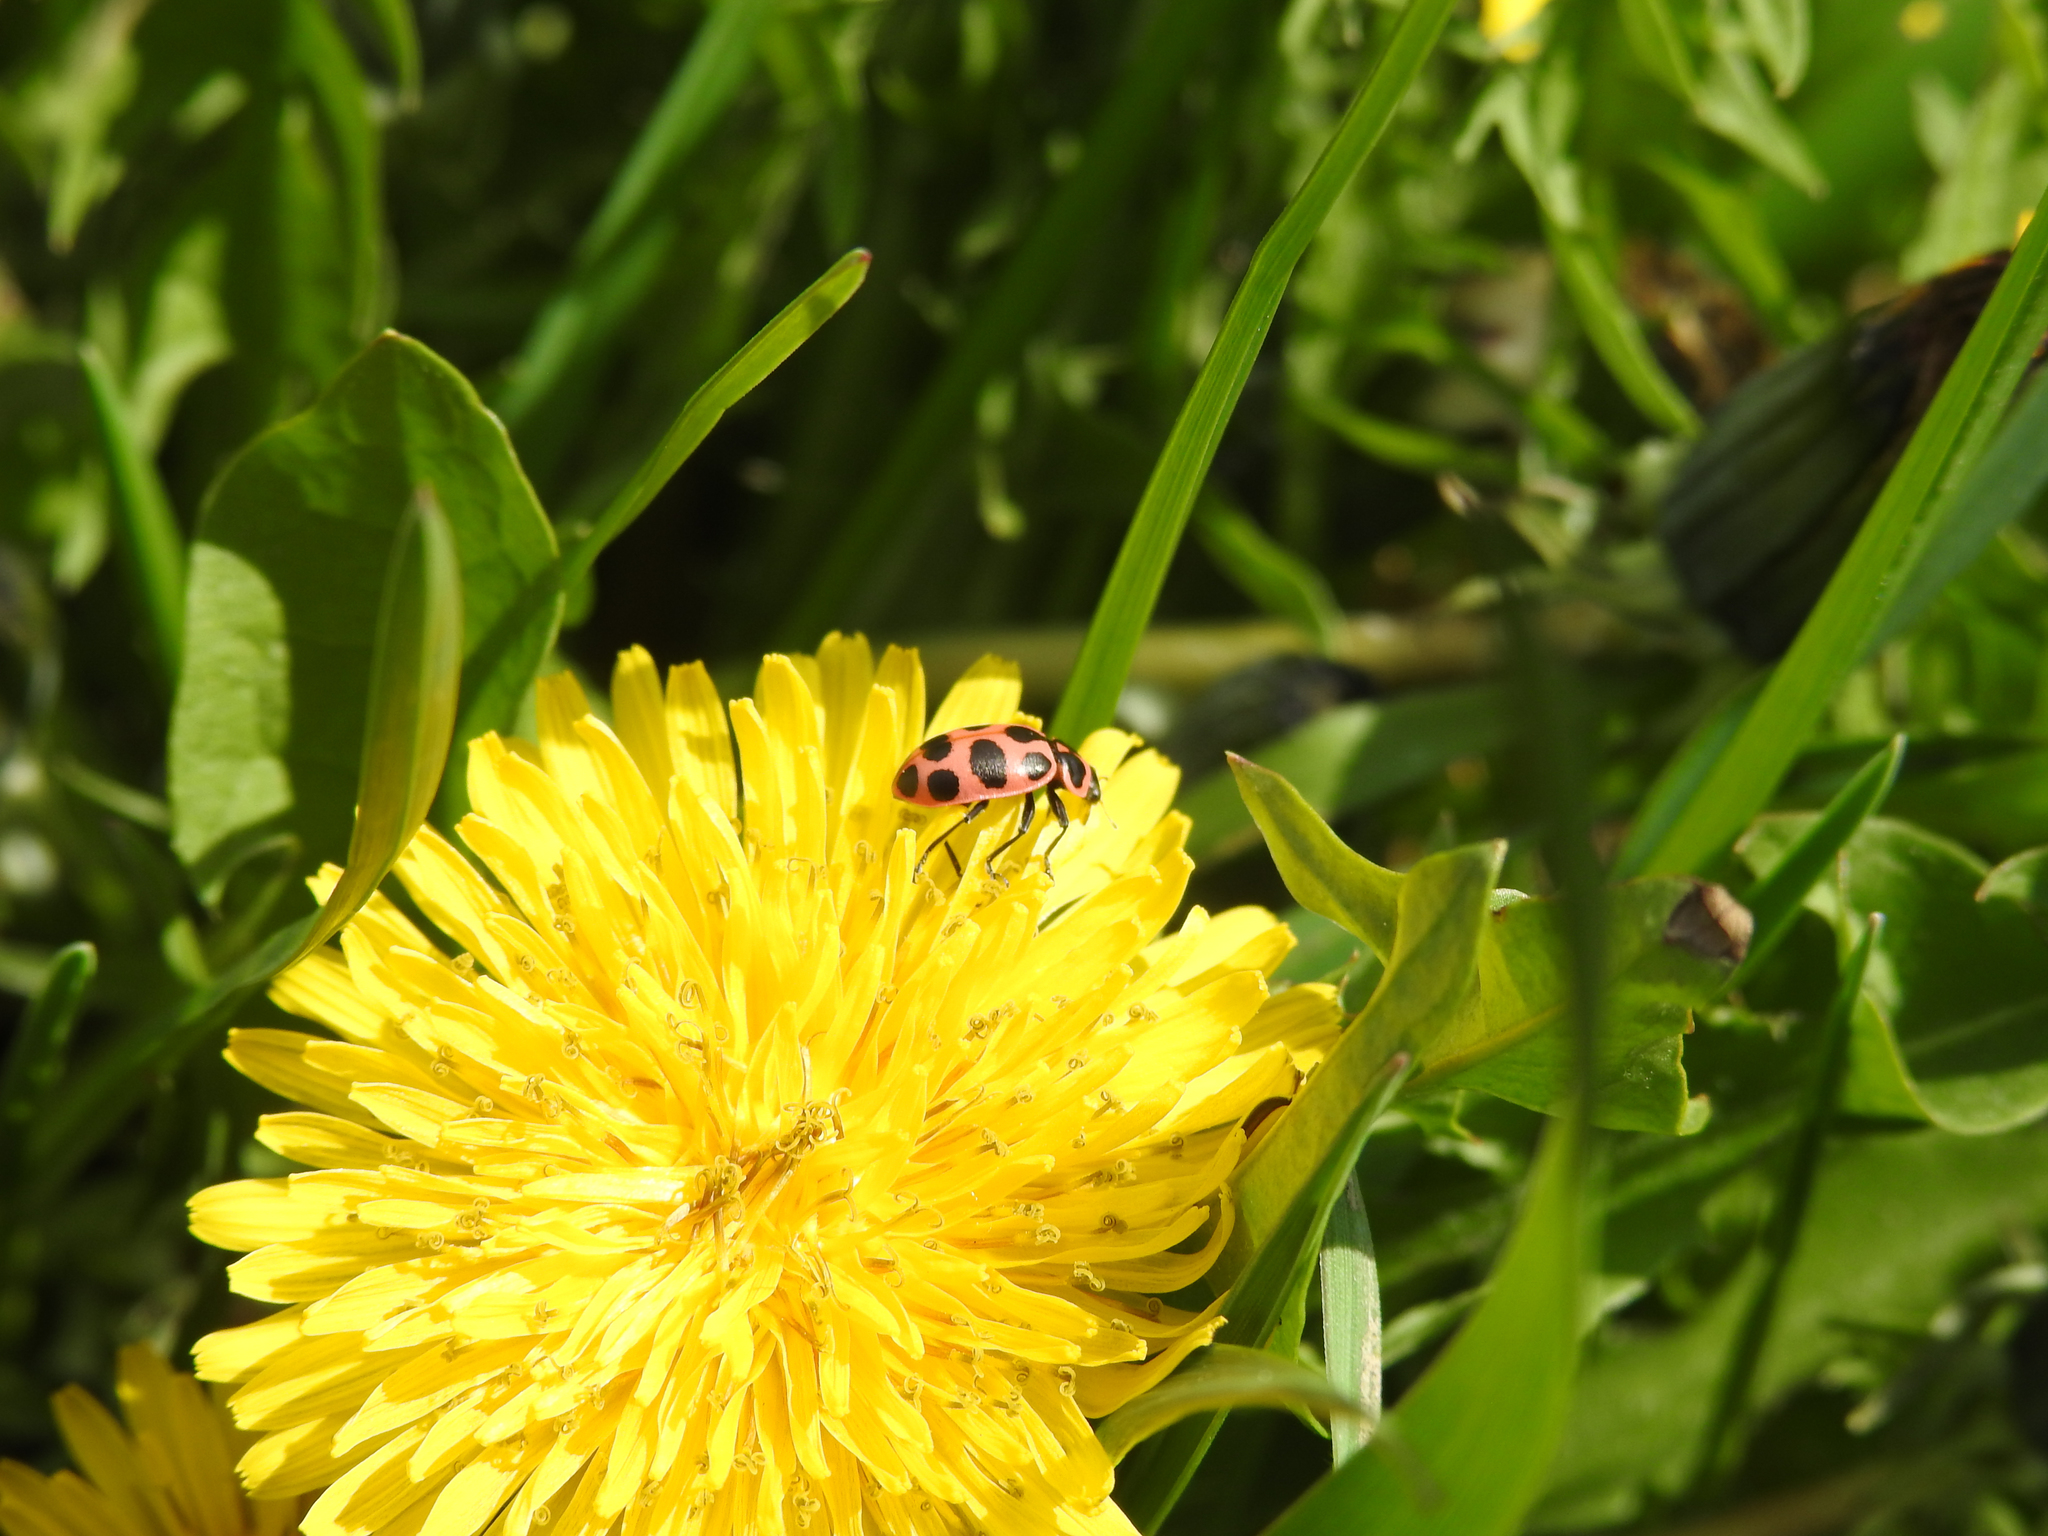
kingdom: Animalia
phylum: Arthropoda
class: Insecta
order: Coleoptera
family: Coccinellidae
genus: Coleomegilla
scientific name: Coleomegilla maculata
